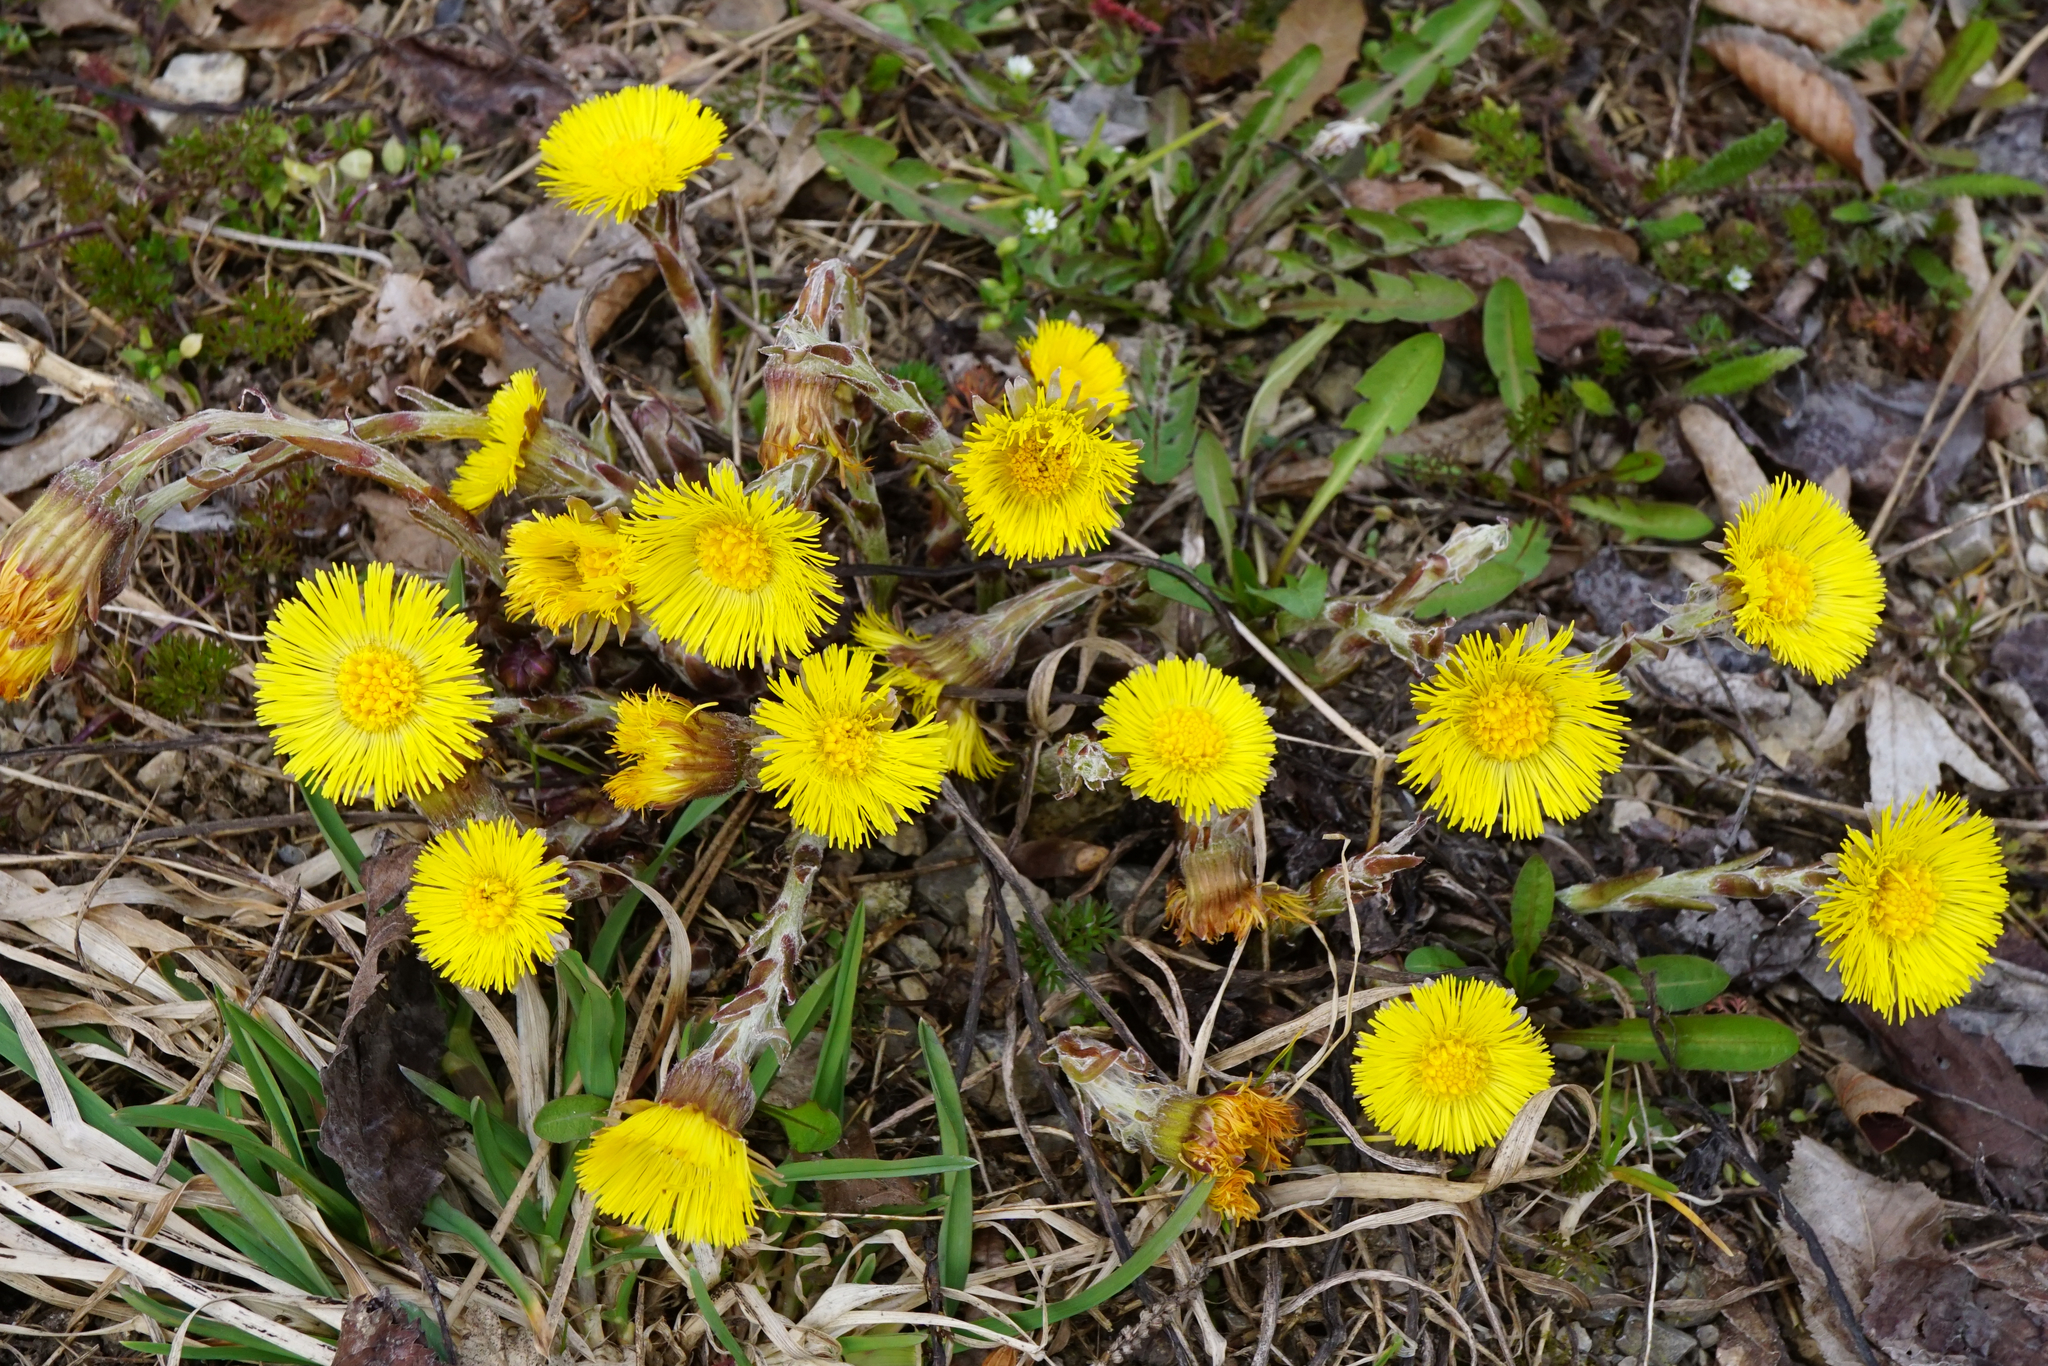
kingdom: Plantae
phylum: Tracheophyta
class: Magnoliopsida
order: Asterales
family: Asteraceae
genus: Tussilago
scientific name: Tussilago farfara
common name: Coltsfoot
